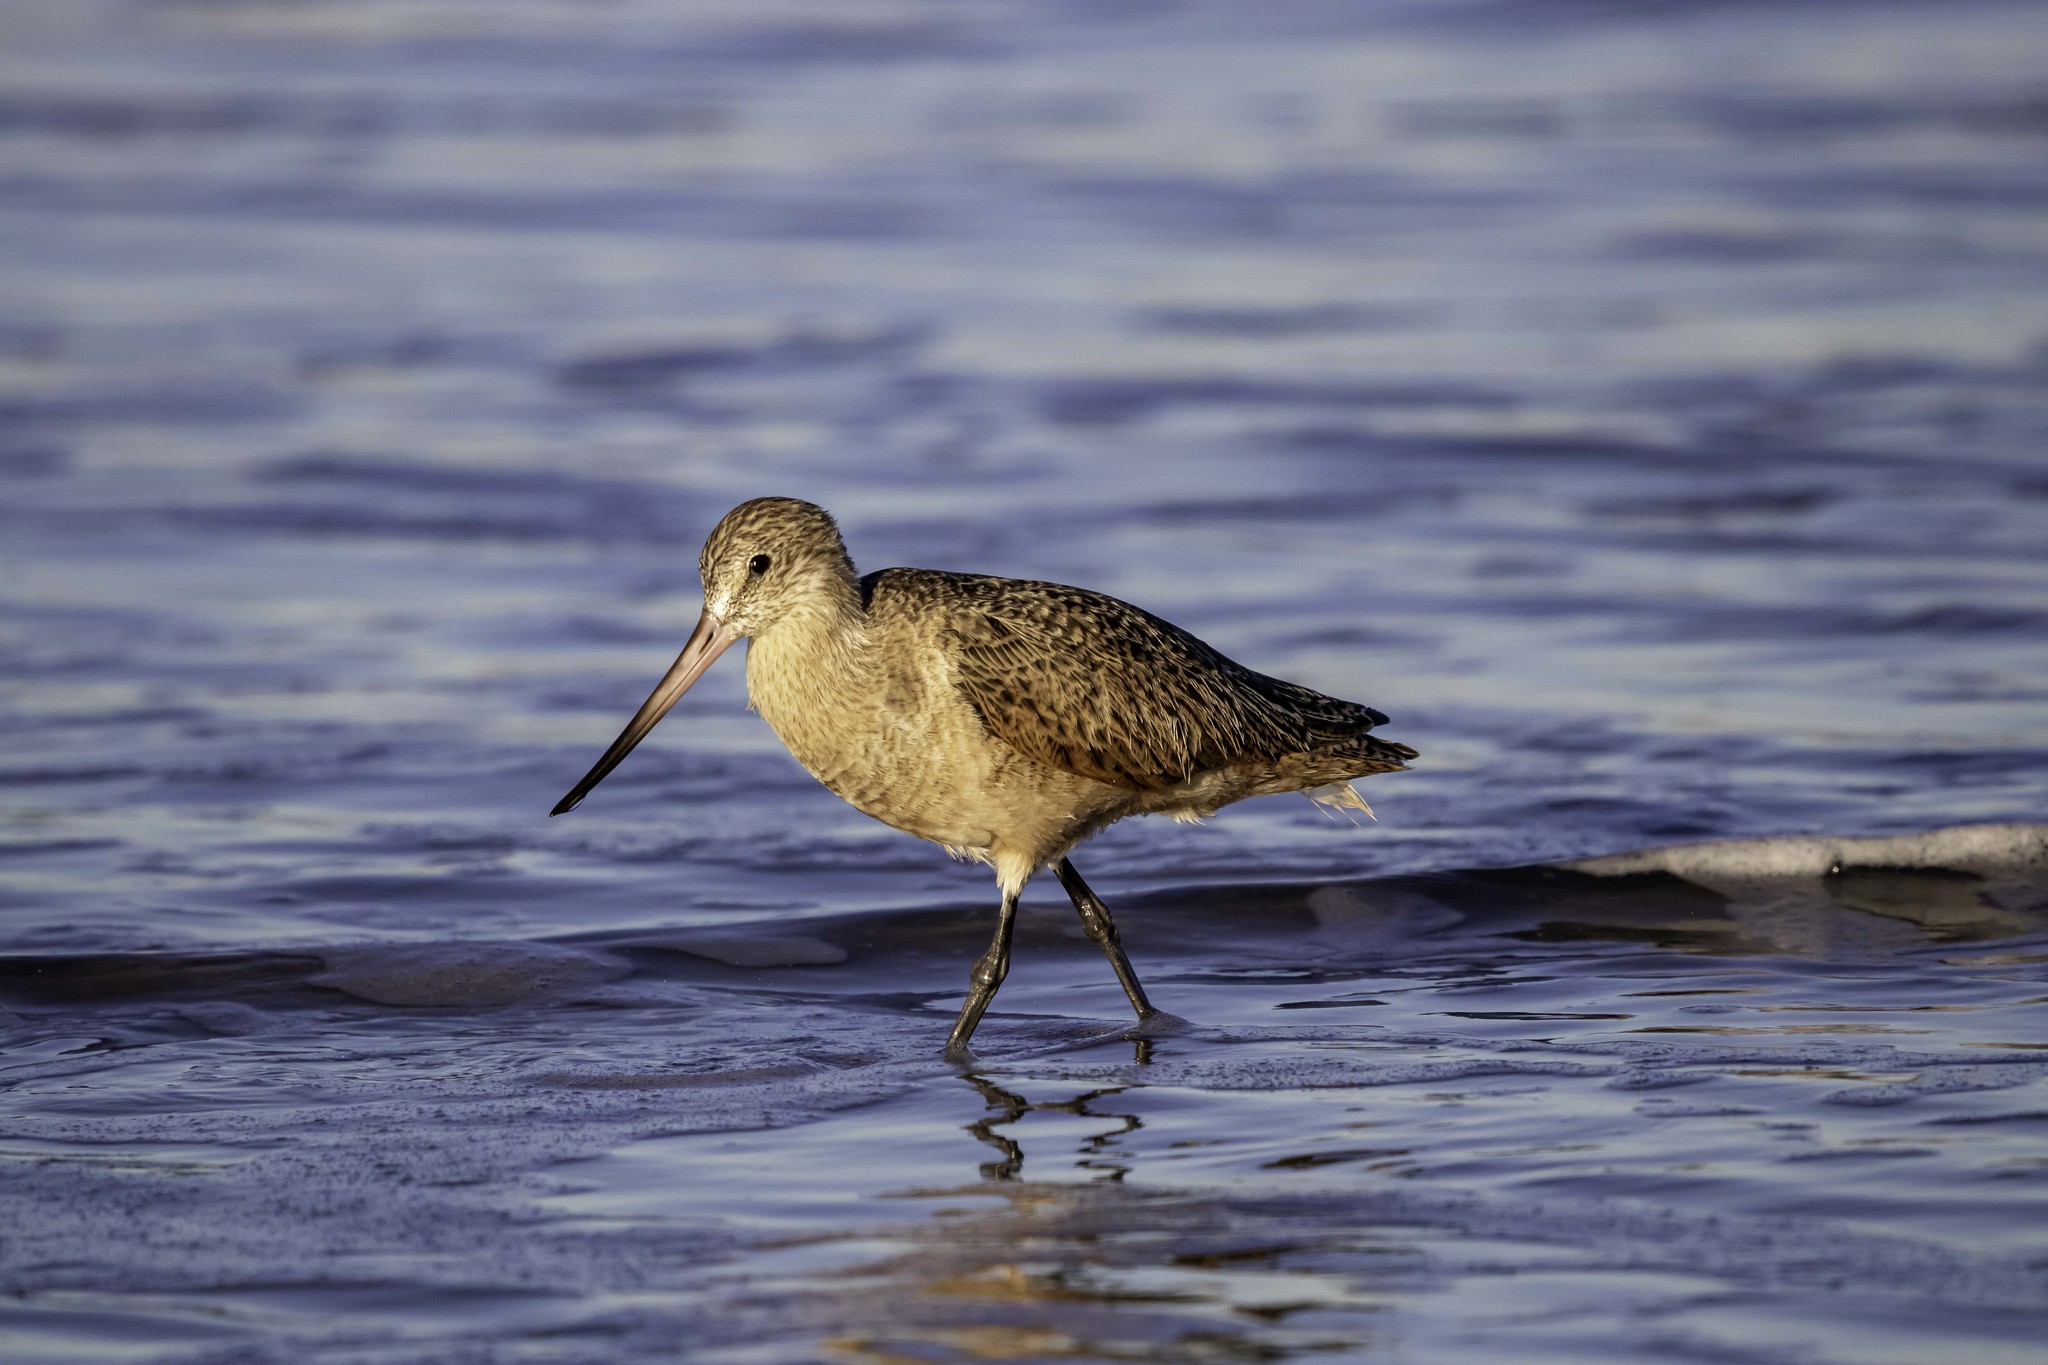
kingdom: Animalia
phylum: Chordata
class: Aves
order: Charadriiformes
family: Scolopacidae
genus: Limosa
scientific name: Limosa fedoa
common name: Marbled godwit
